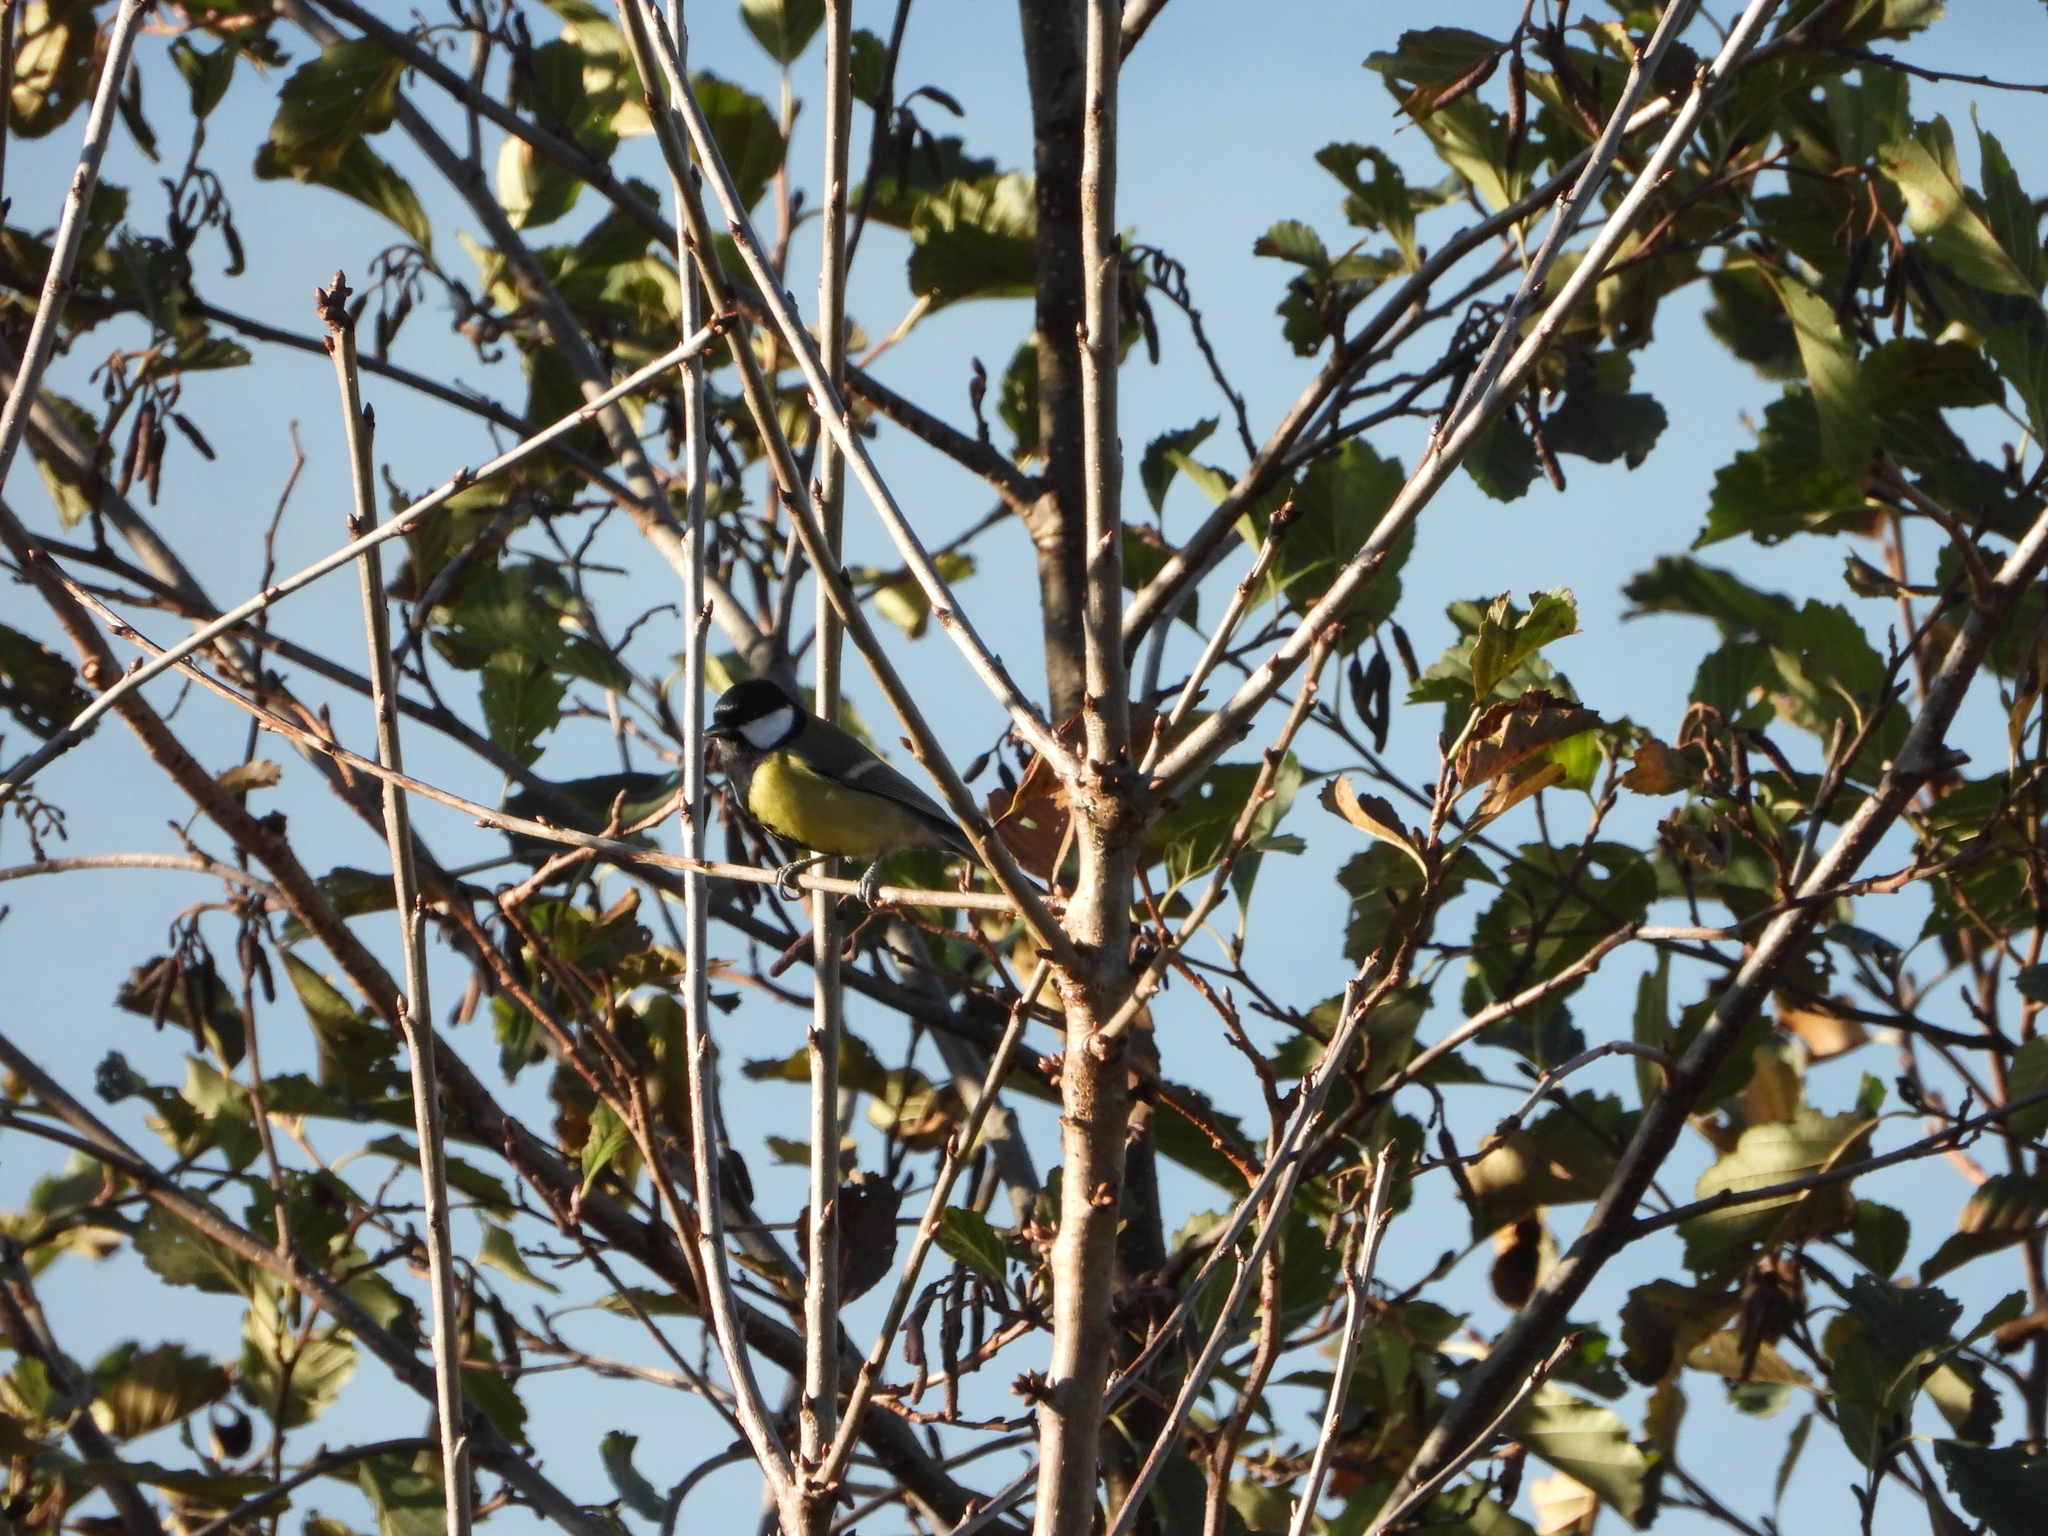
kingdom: Animalia
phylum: Chordata
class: Aves
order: Passeriformes
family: Paridae
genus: Parus
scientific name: Parus major
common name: Great tit
